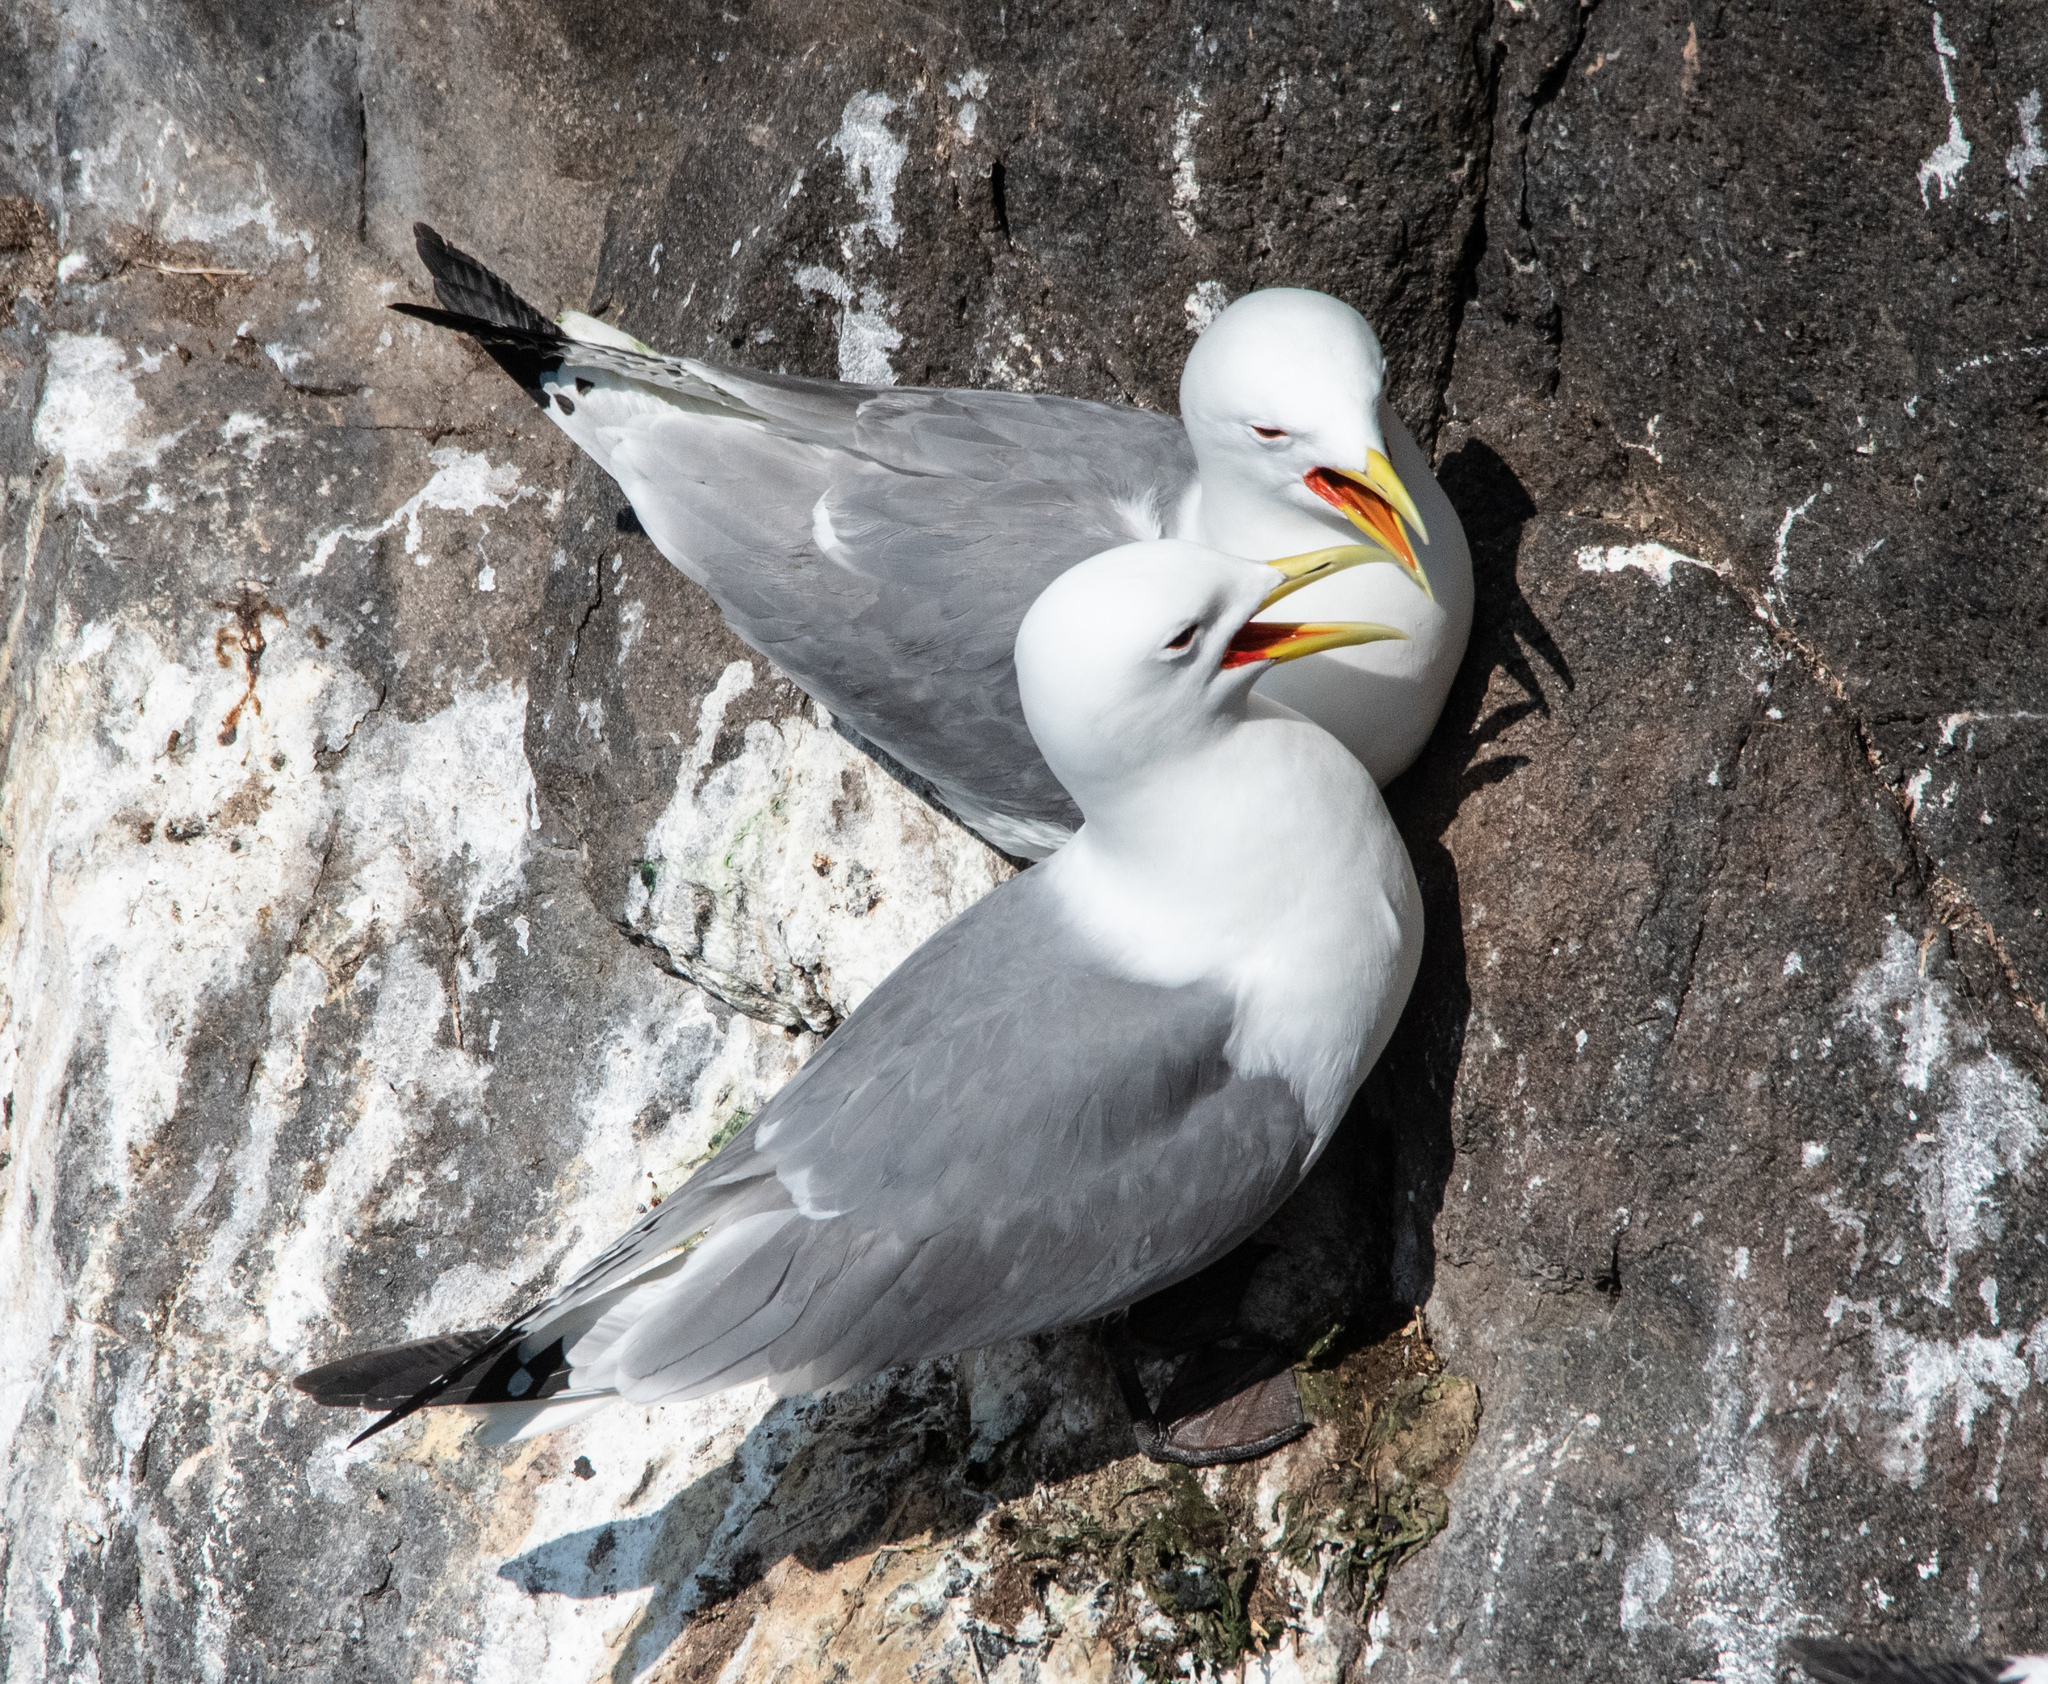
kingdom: Animalia
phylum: Chordata
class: Aves
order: Charadriiformes
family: Laridae
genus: Rissa
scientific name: Rissa tridactyla
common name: Black-legged kittiwake
